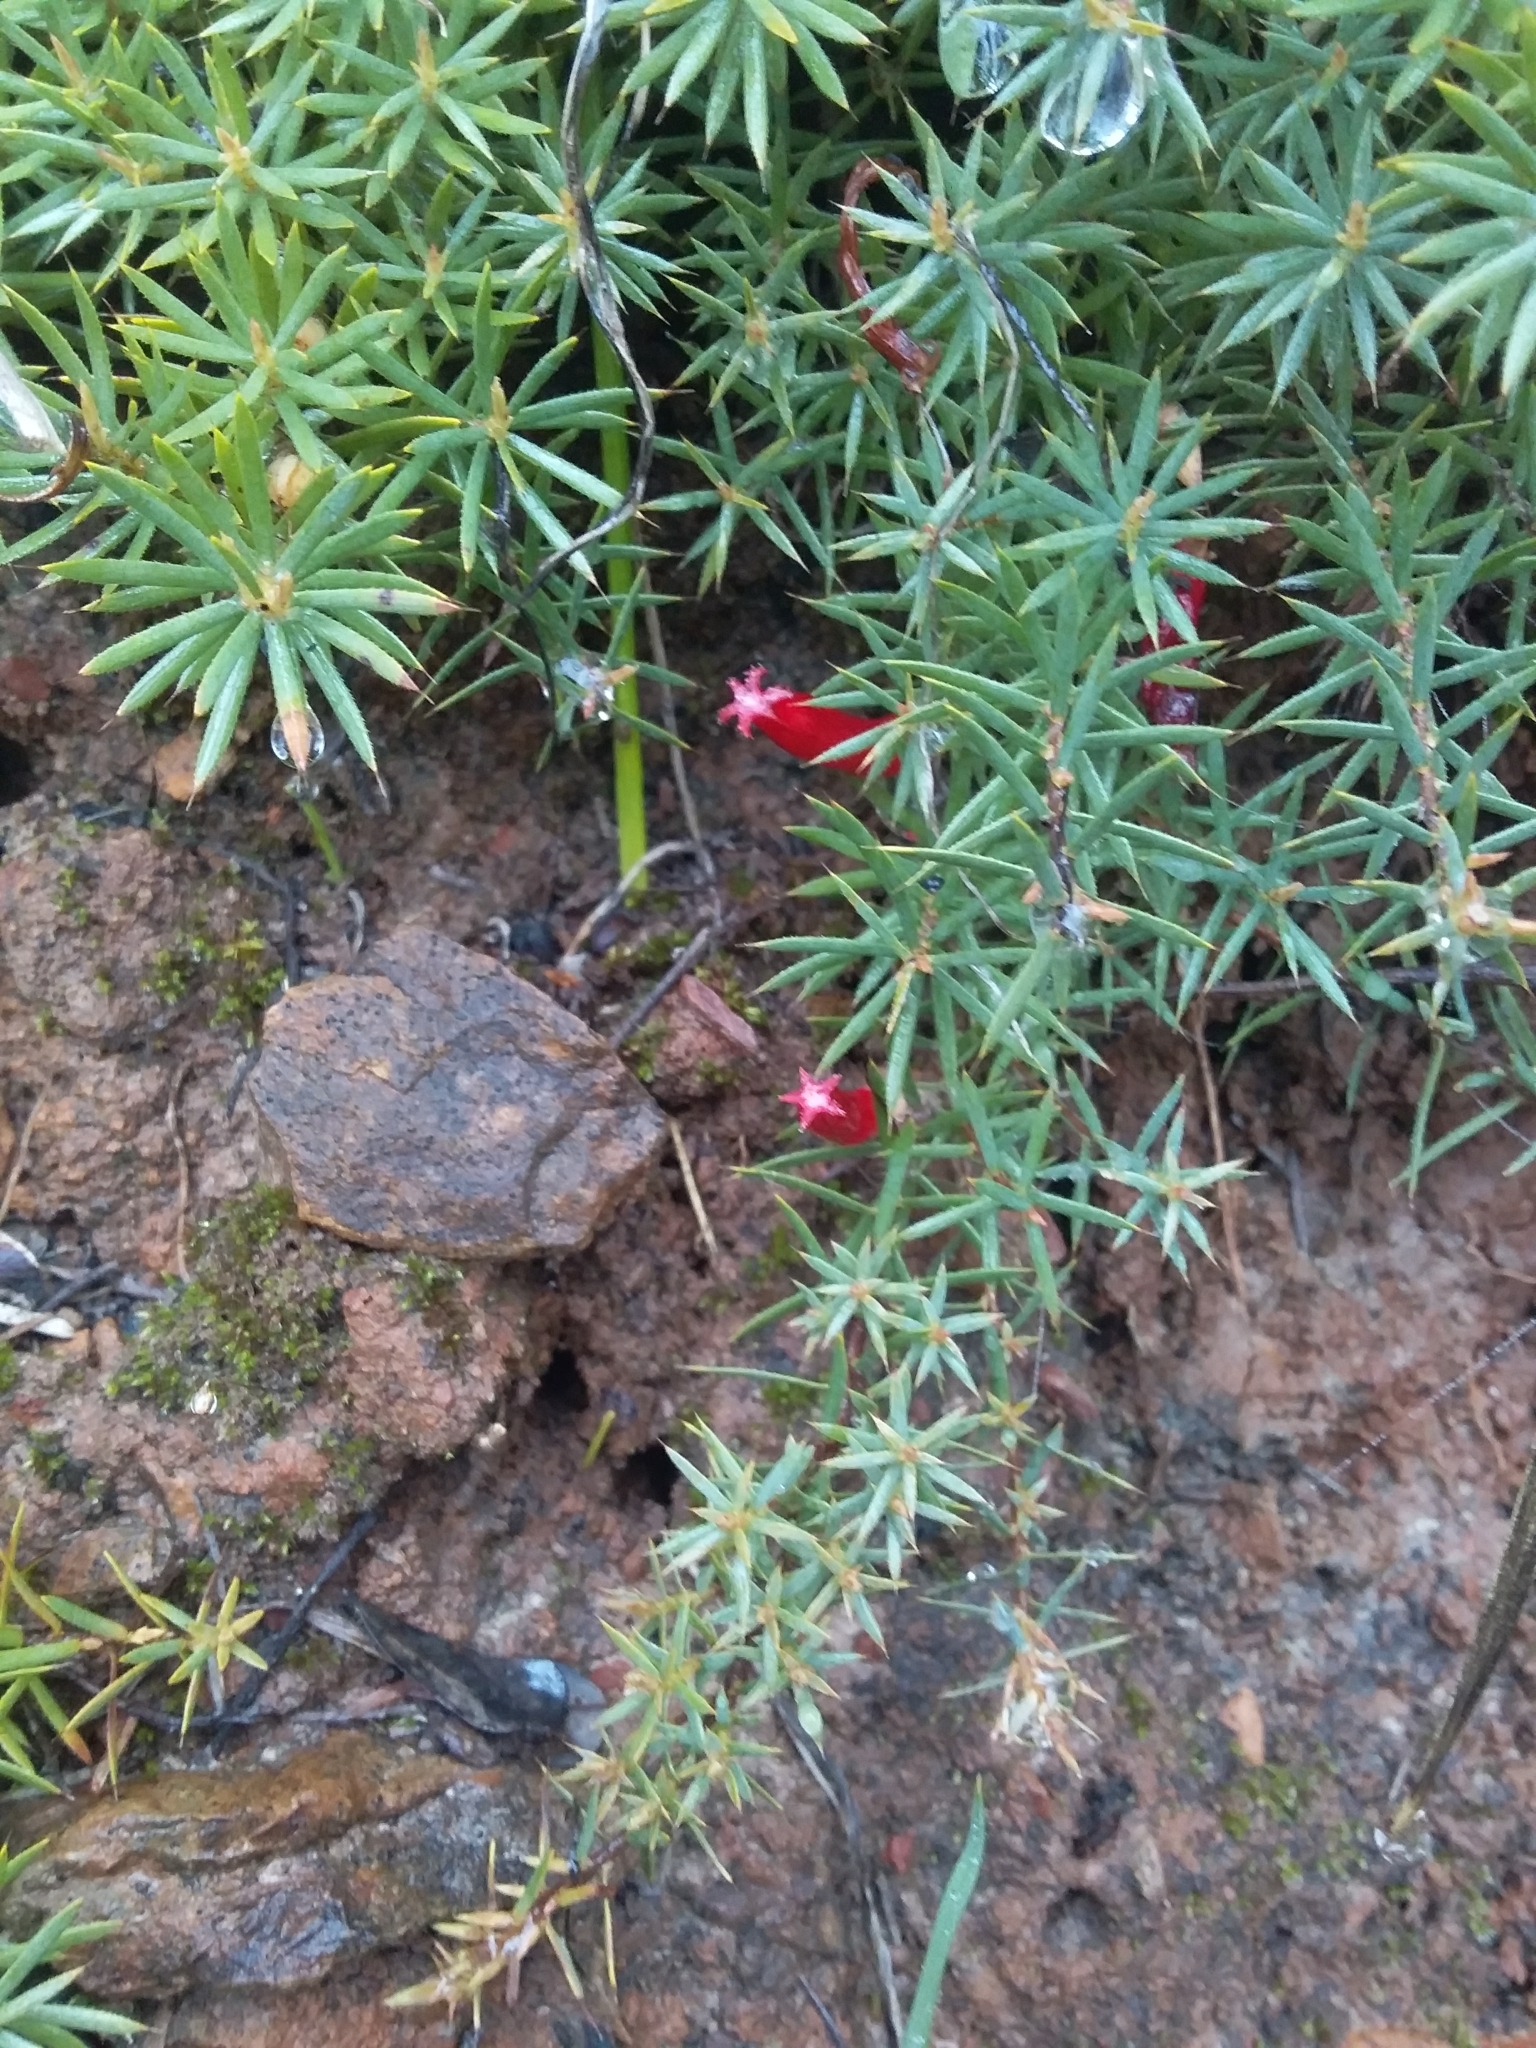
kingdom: Plantae
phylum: Tracheophyta
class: Magnoliopsida
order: Ericales
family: Ericaceae
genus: Styphelia
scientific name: Styphelia humifusa
